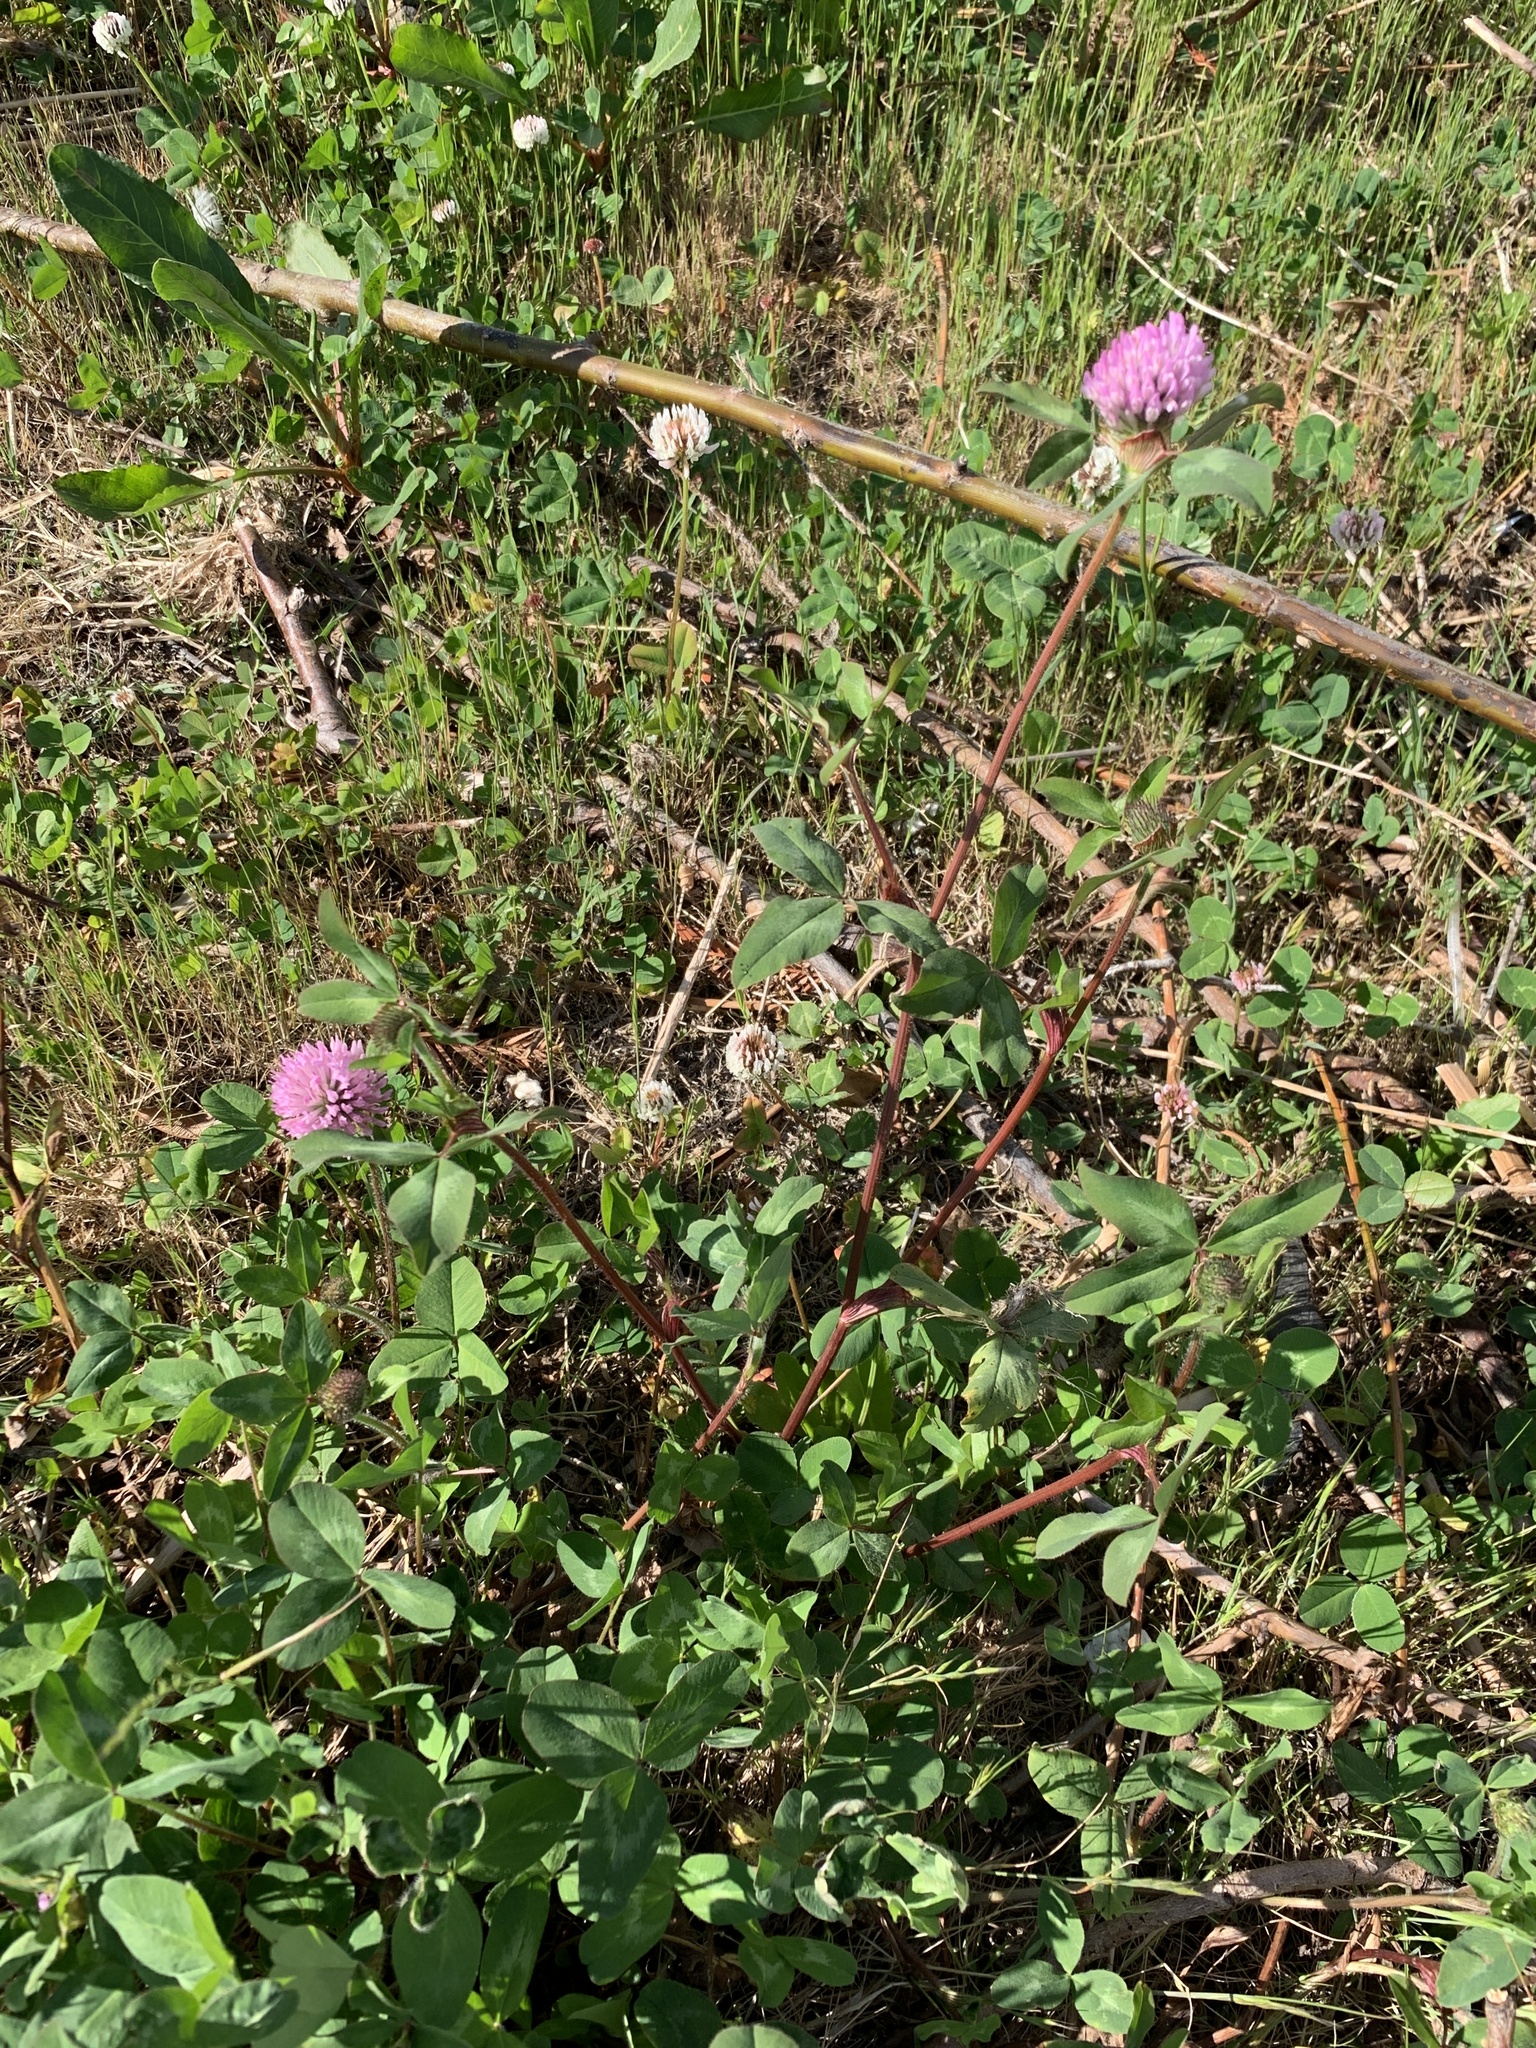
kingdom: Plantae
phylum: Tracheophyta
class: Magnoliopsida
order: Fabales
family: Fabaceae
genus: Trifolium
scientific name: Trifolium pratense
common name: Red clover
